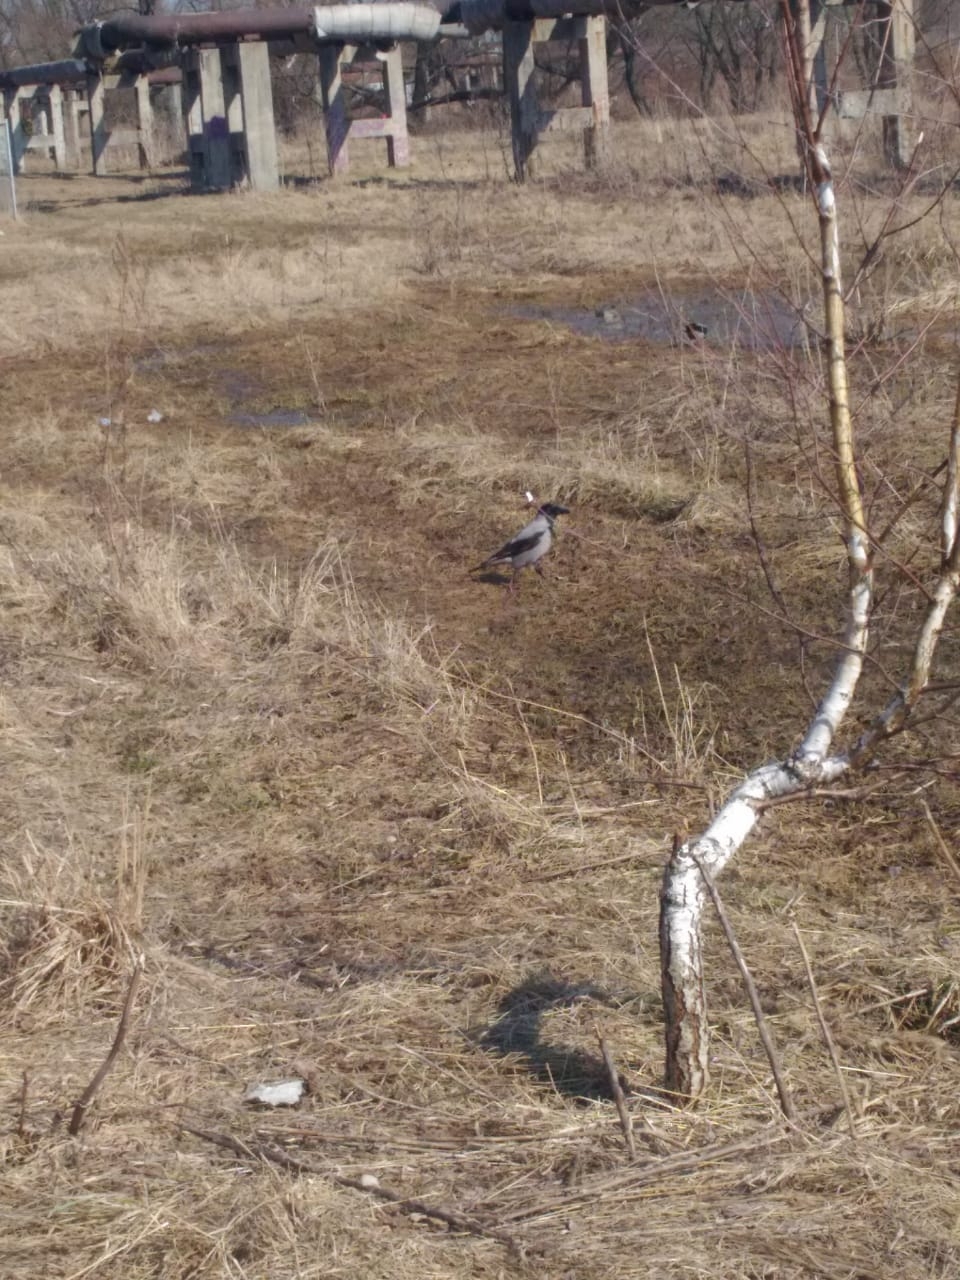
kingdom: Animalia
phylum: Chordata
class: Aves
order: Passeriformes
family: Corvidae
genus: Corvus
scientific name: Corvus cornix
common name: Hooded crow
